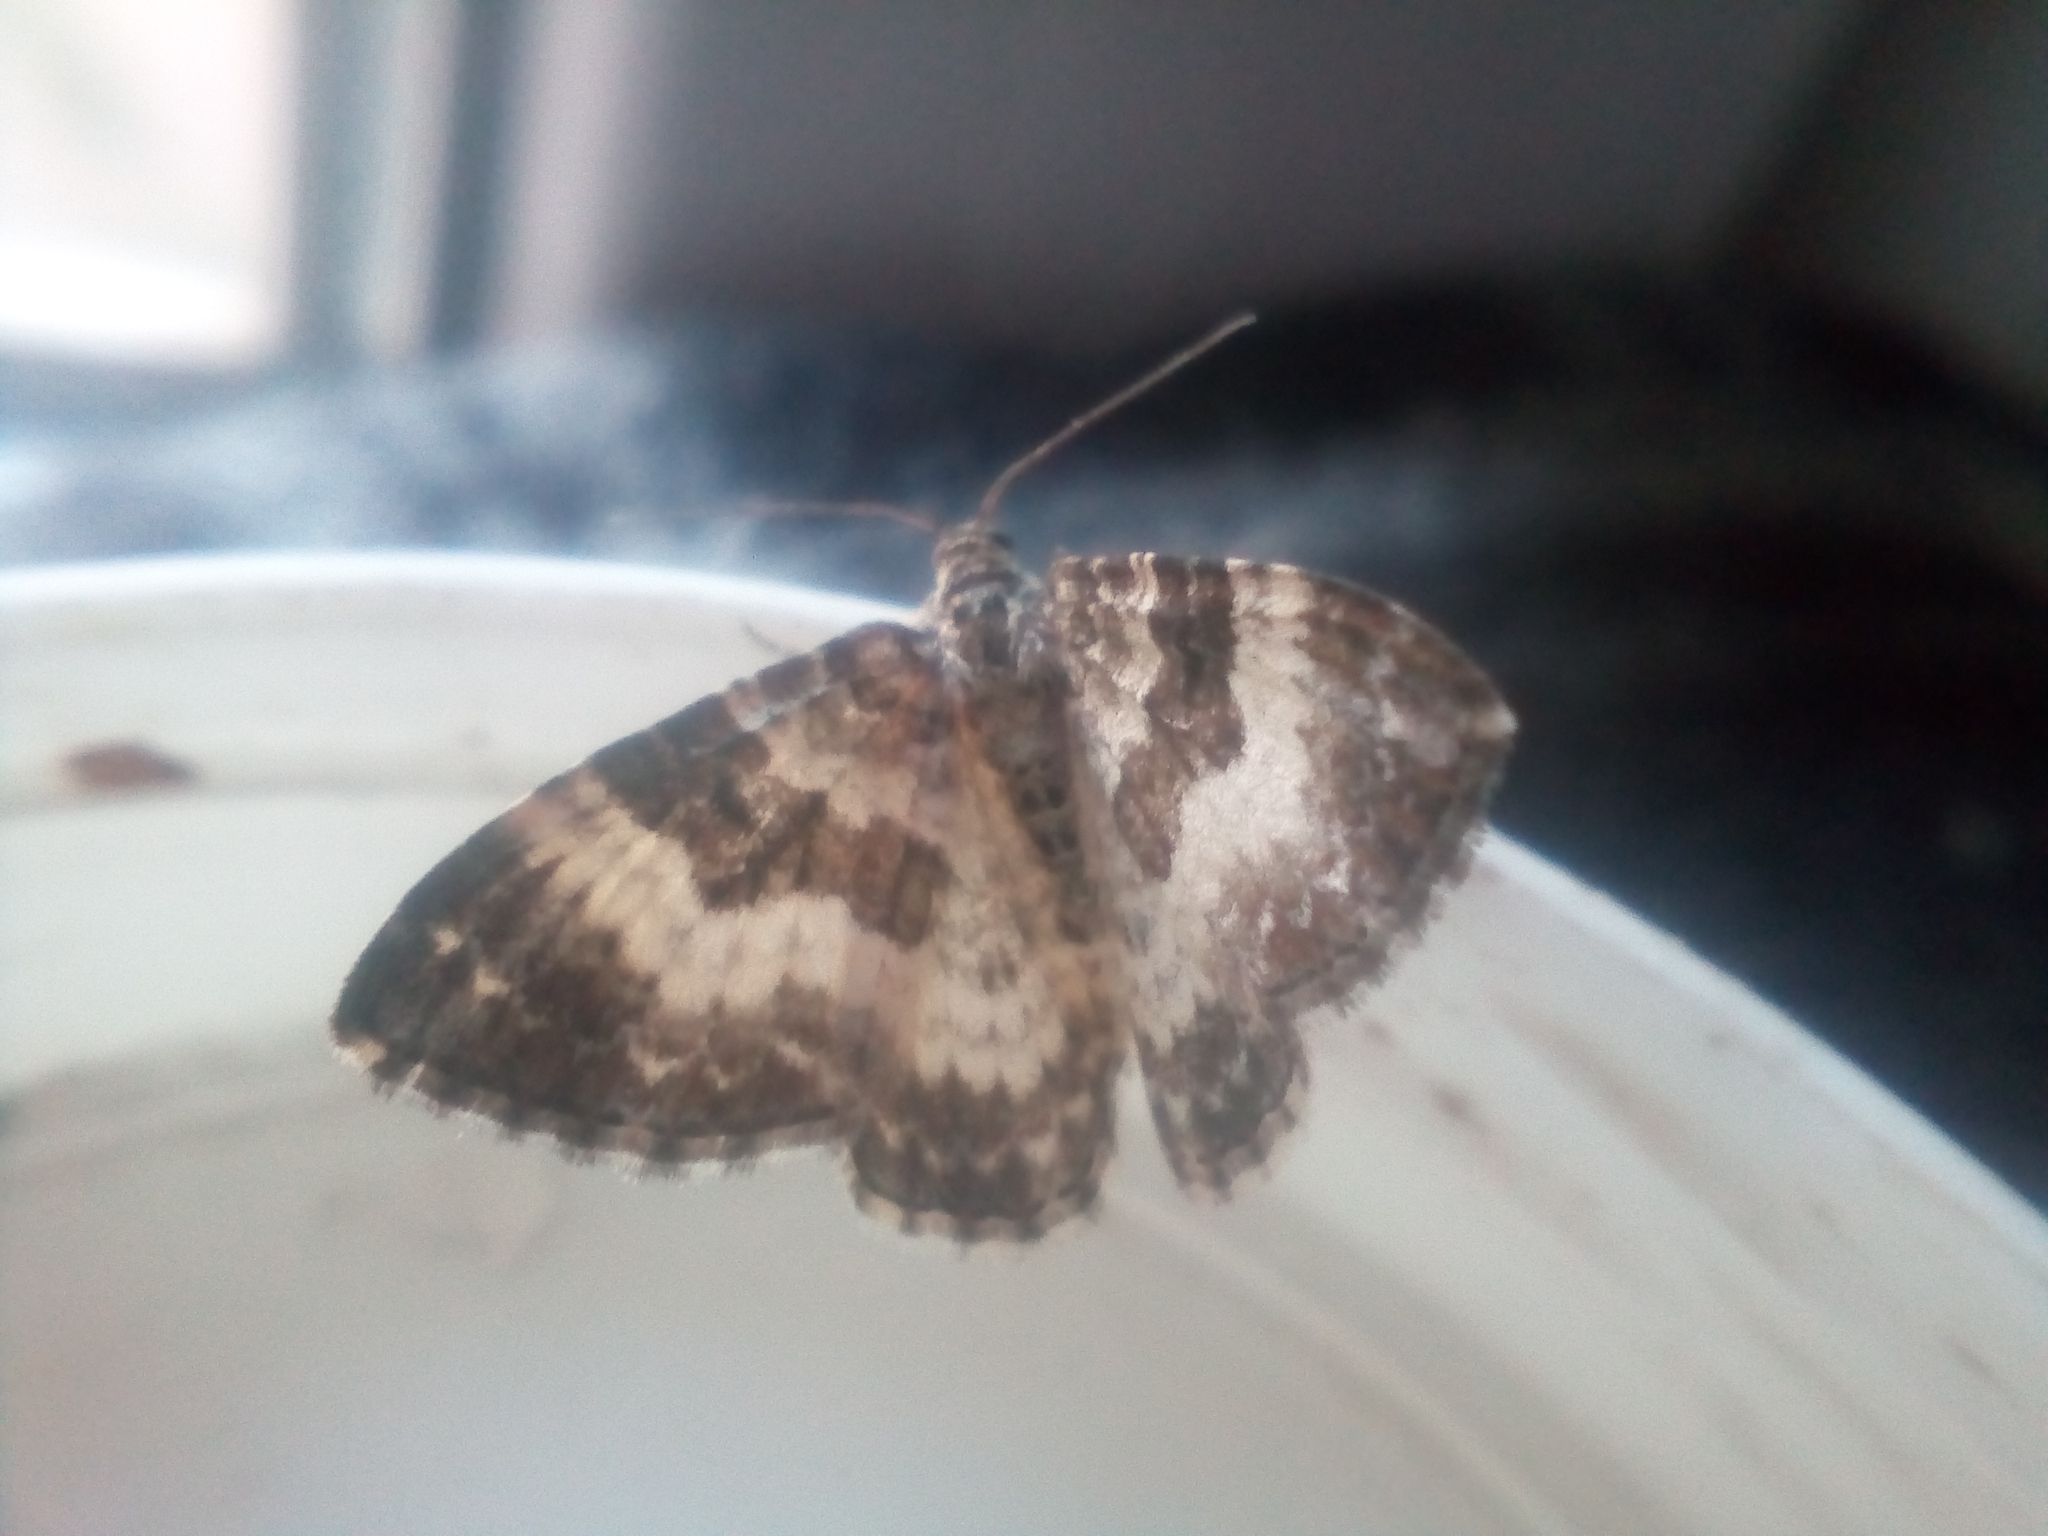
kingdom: Animalia
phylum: Arthropoda
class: Insecta
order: Lepidoptera
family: Geometridae
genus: Epirrhoe
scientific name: Epirrhoe alternata
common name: Common carpet
